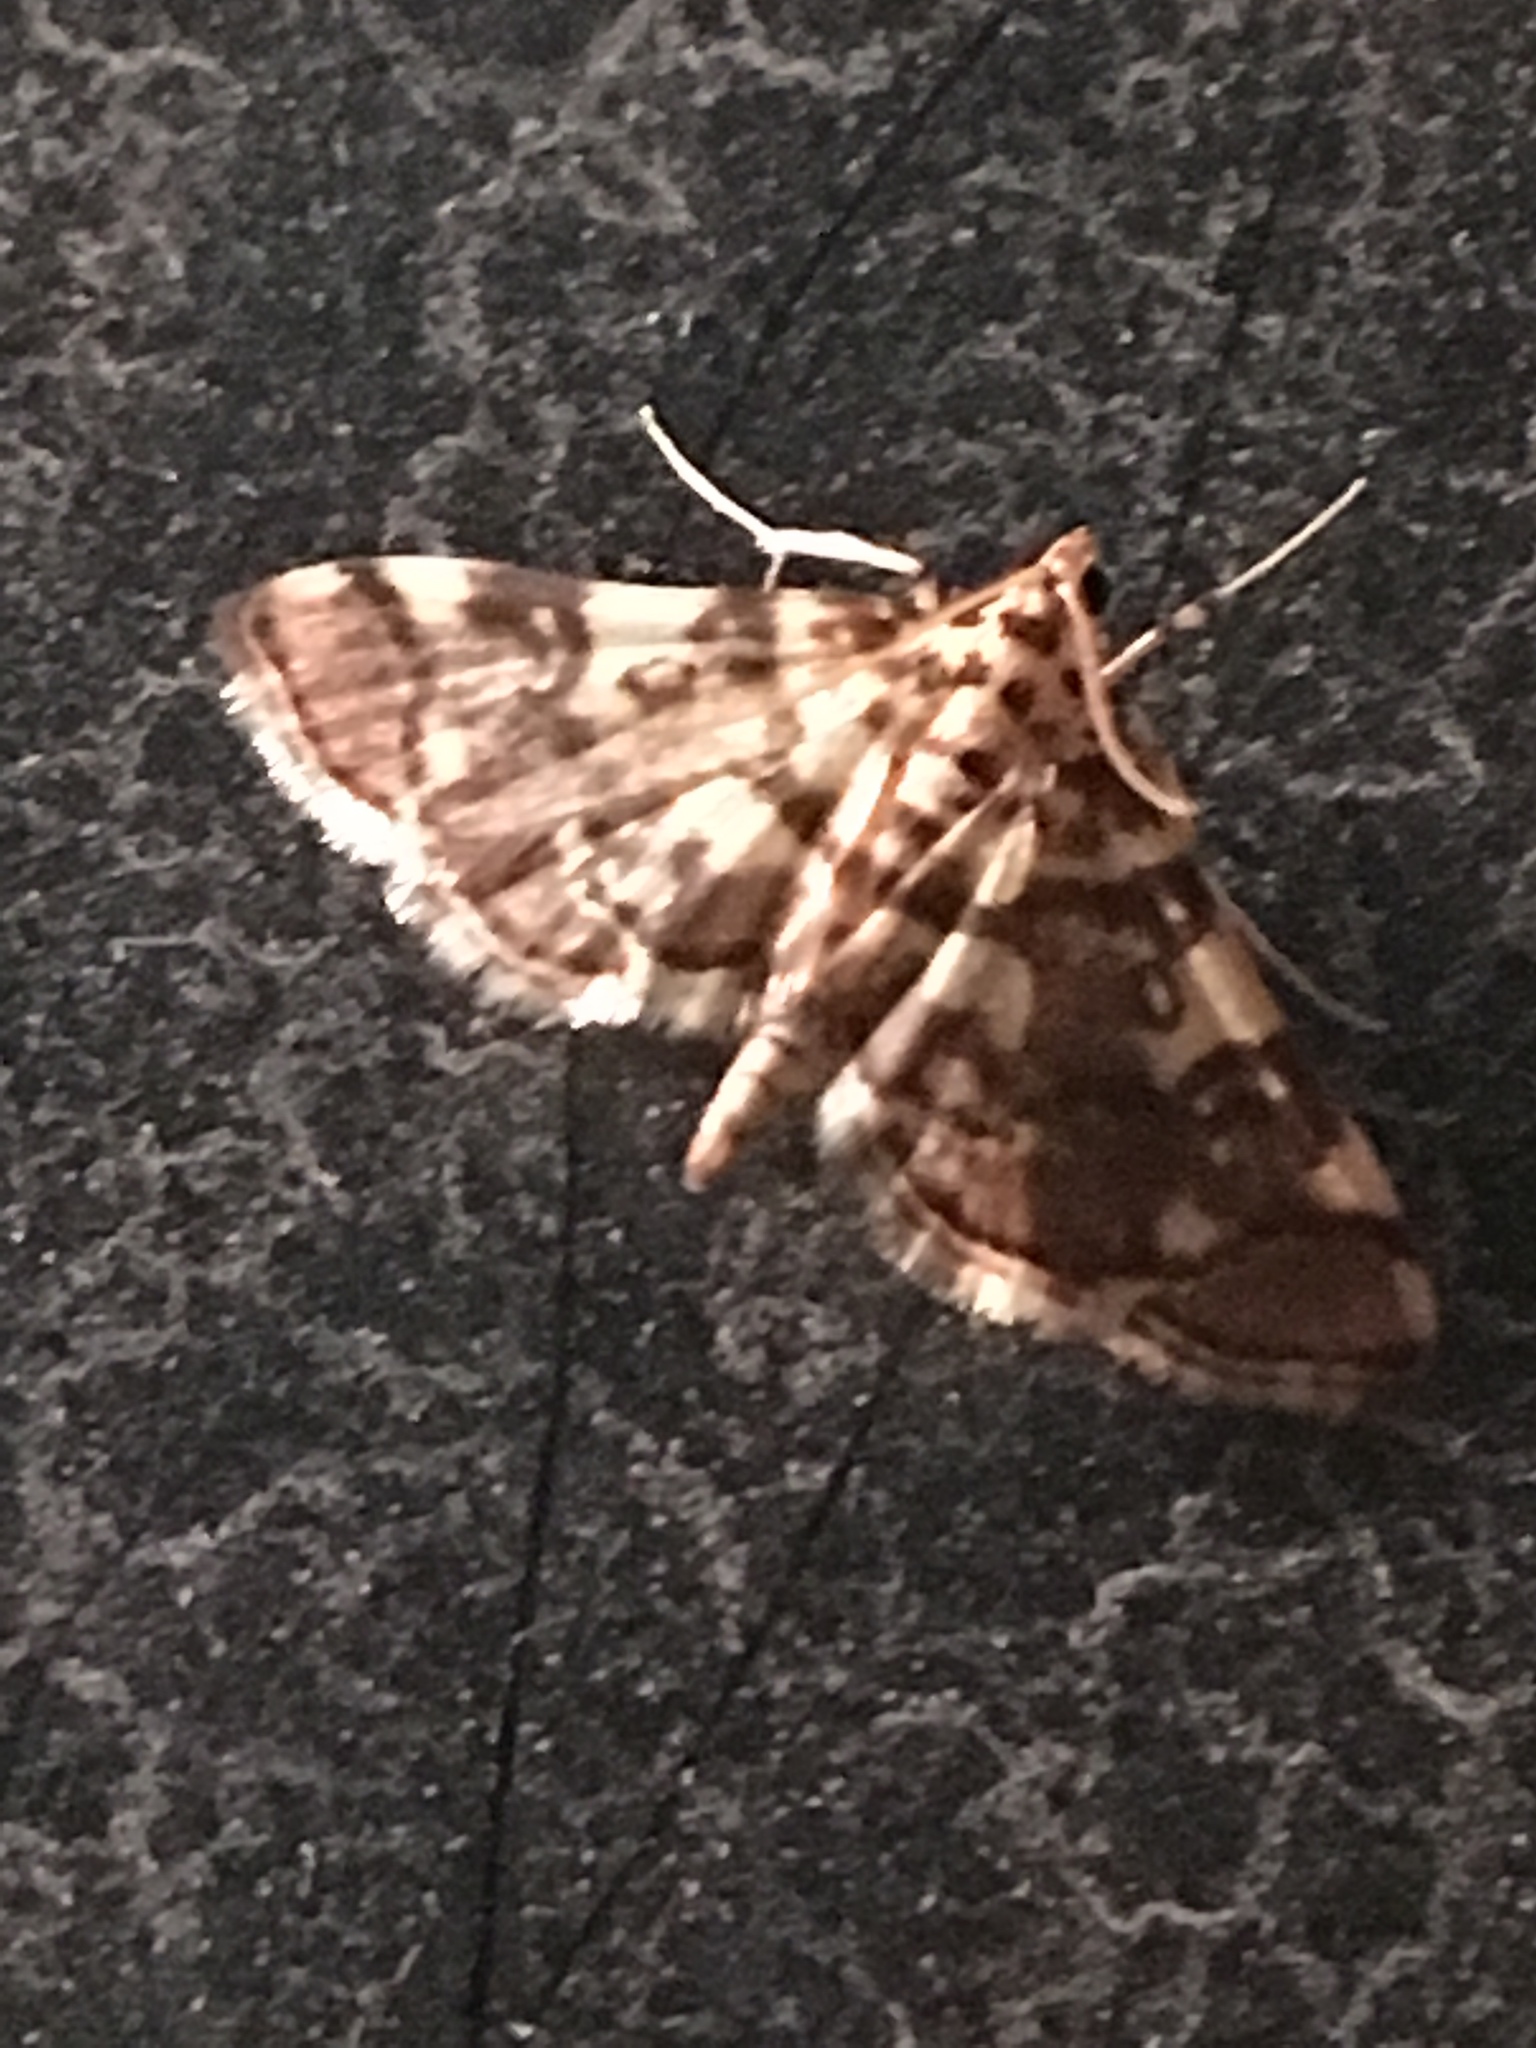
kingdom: Animalia
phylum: Arthropoda
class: Insecta
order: Lepidoptera
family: Crambidae
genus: Apogeshna
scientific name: Apogeshna stenialis
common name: Checkered apogeshna moth
